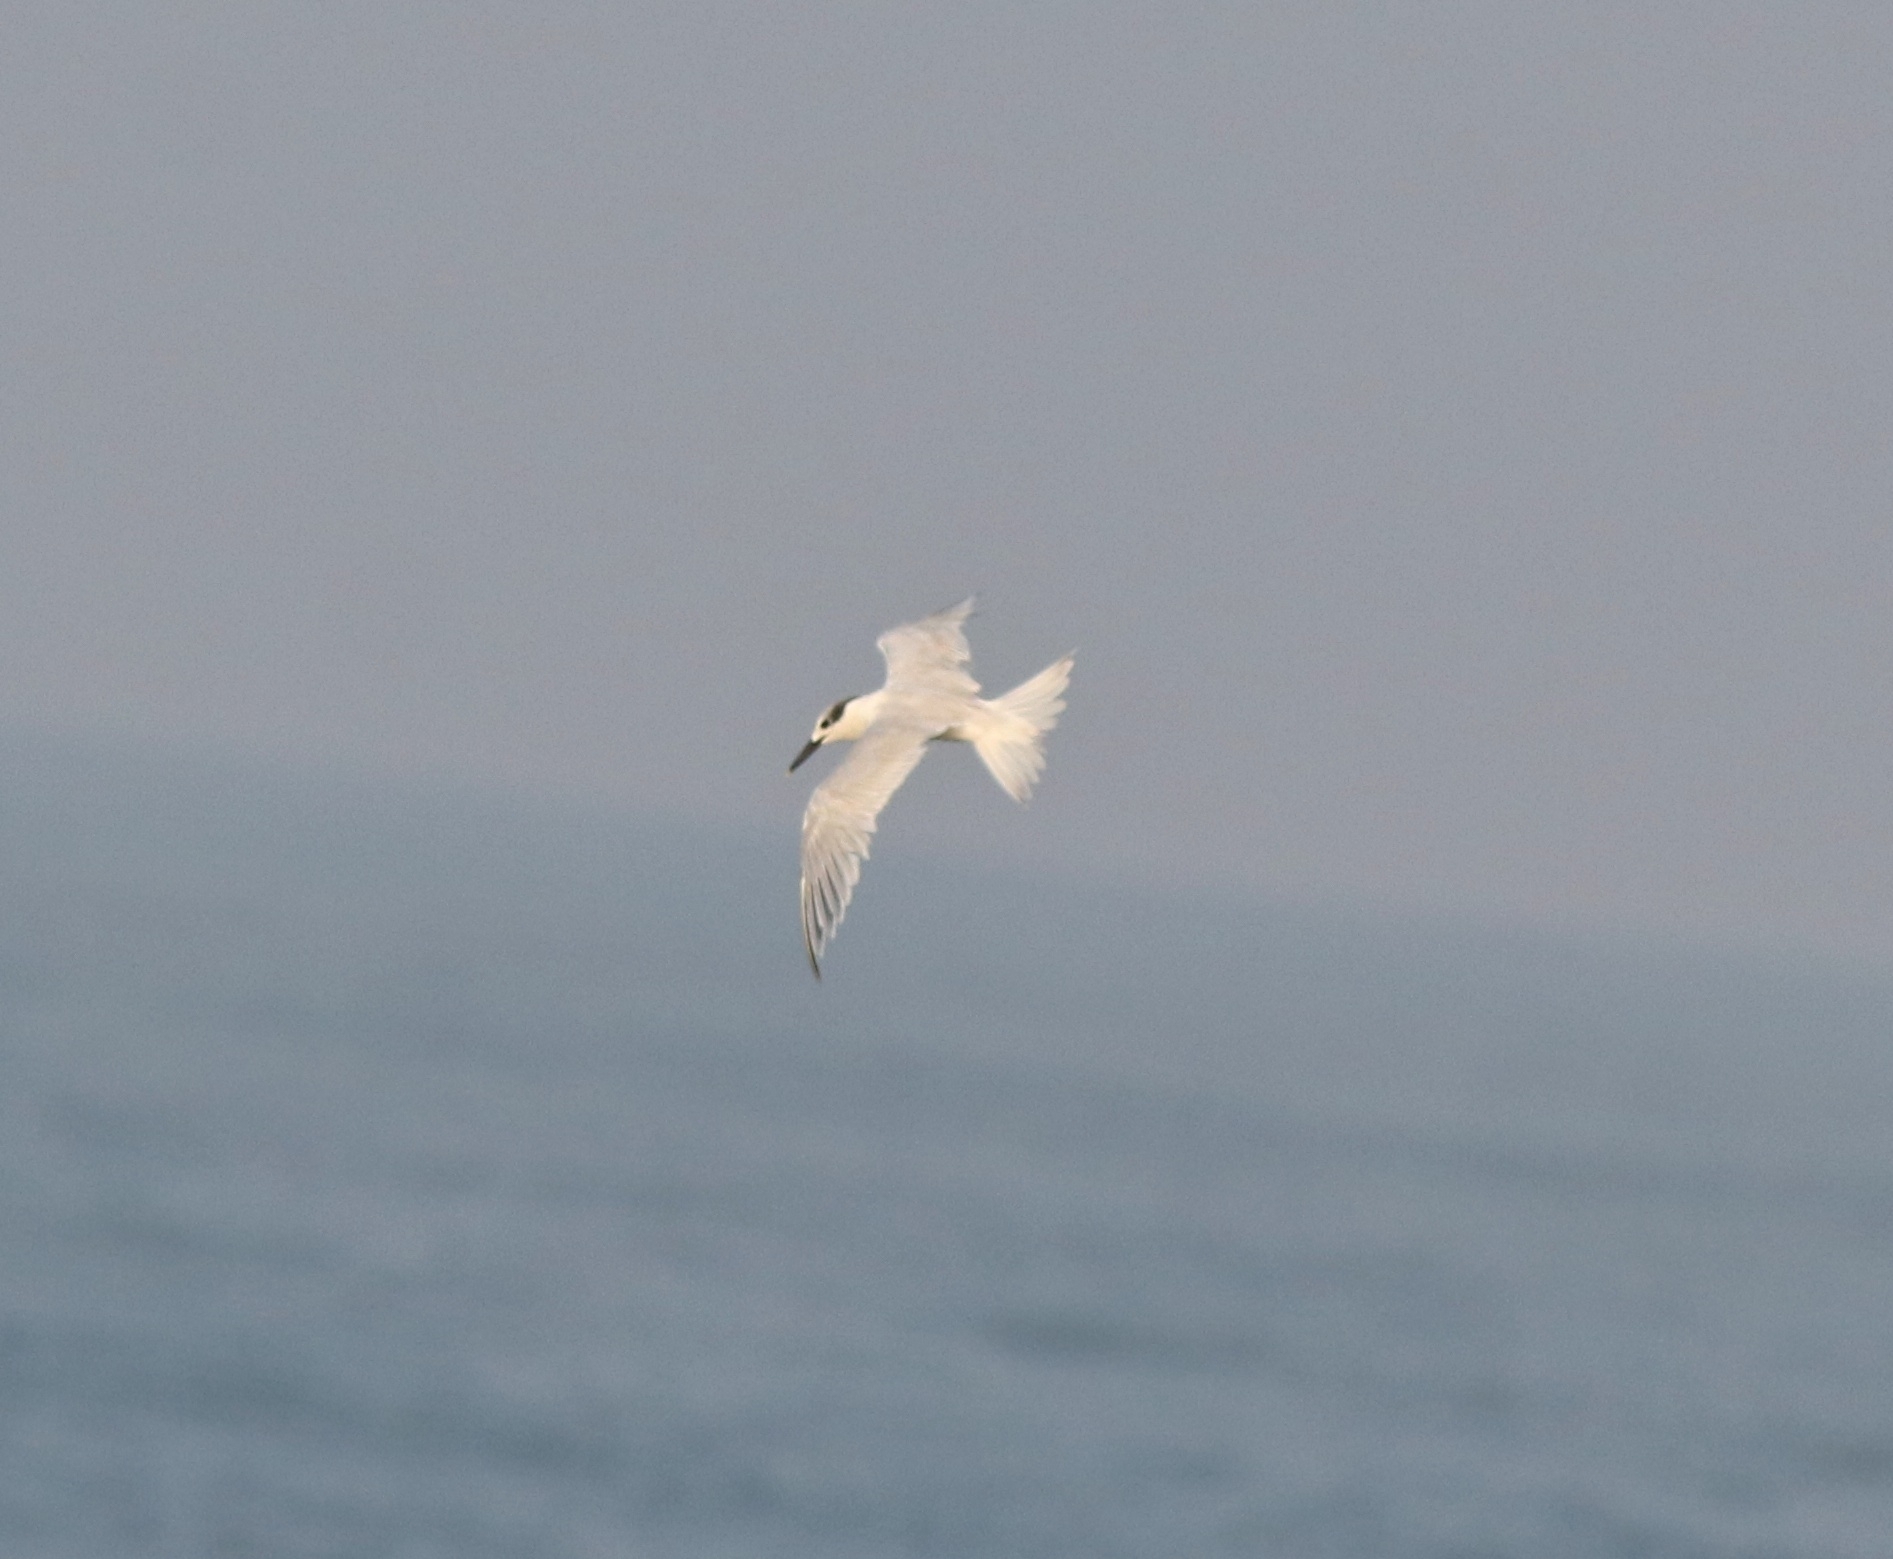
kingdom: Animalia
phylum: Chordata
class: Aves
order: Charadriiformes
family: Laridae
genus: Thalasseus
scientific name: Thalasseus sandvicensis
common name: Sandwich tern
